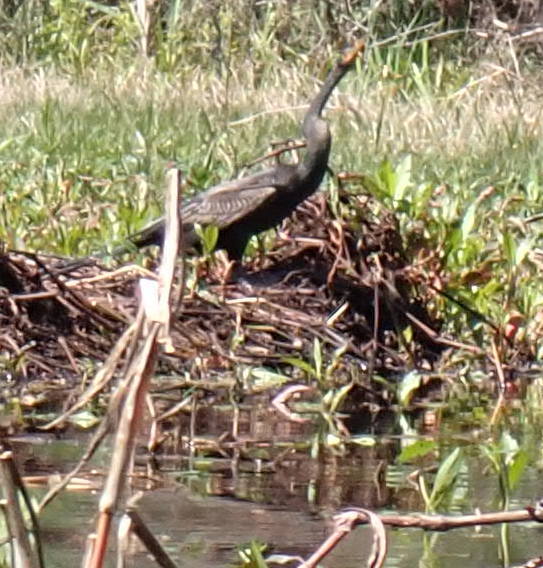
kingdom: Animalia
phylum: Chordata
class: Aves
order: Suliformes
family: Anhingidae
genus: Anhinga
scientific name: Anhinga anhinga
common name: Anhinga
